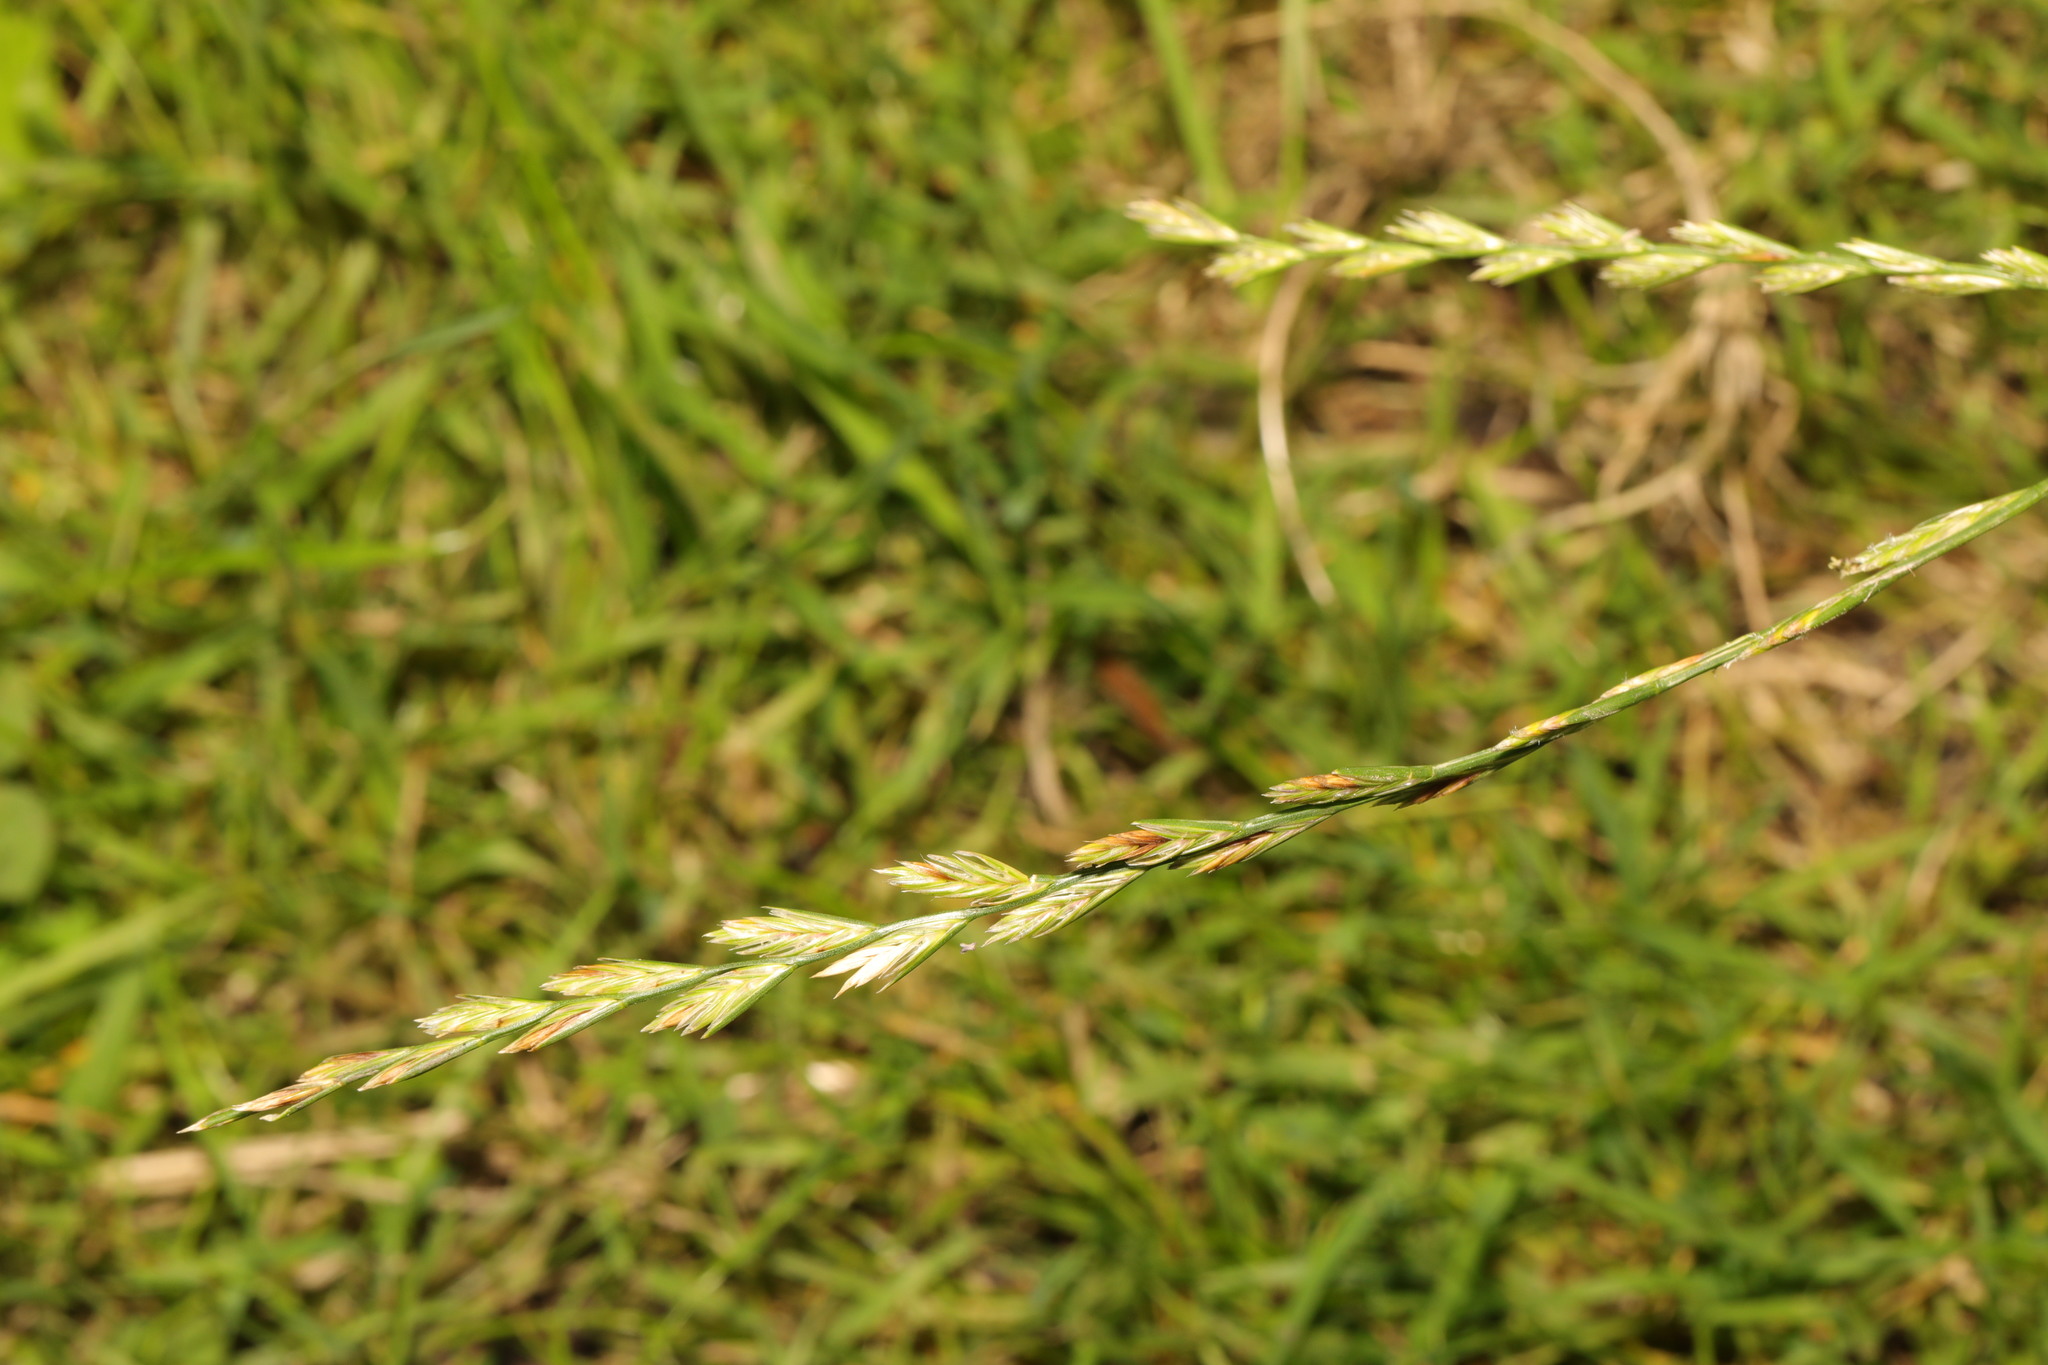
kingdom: Plantae
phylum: Tracheophyta
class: Liliopsida
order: Poales
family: Poaceae
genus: Lolium
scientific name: Lolium perenne
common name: Perennial ryegrass
